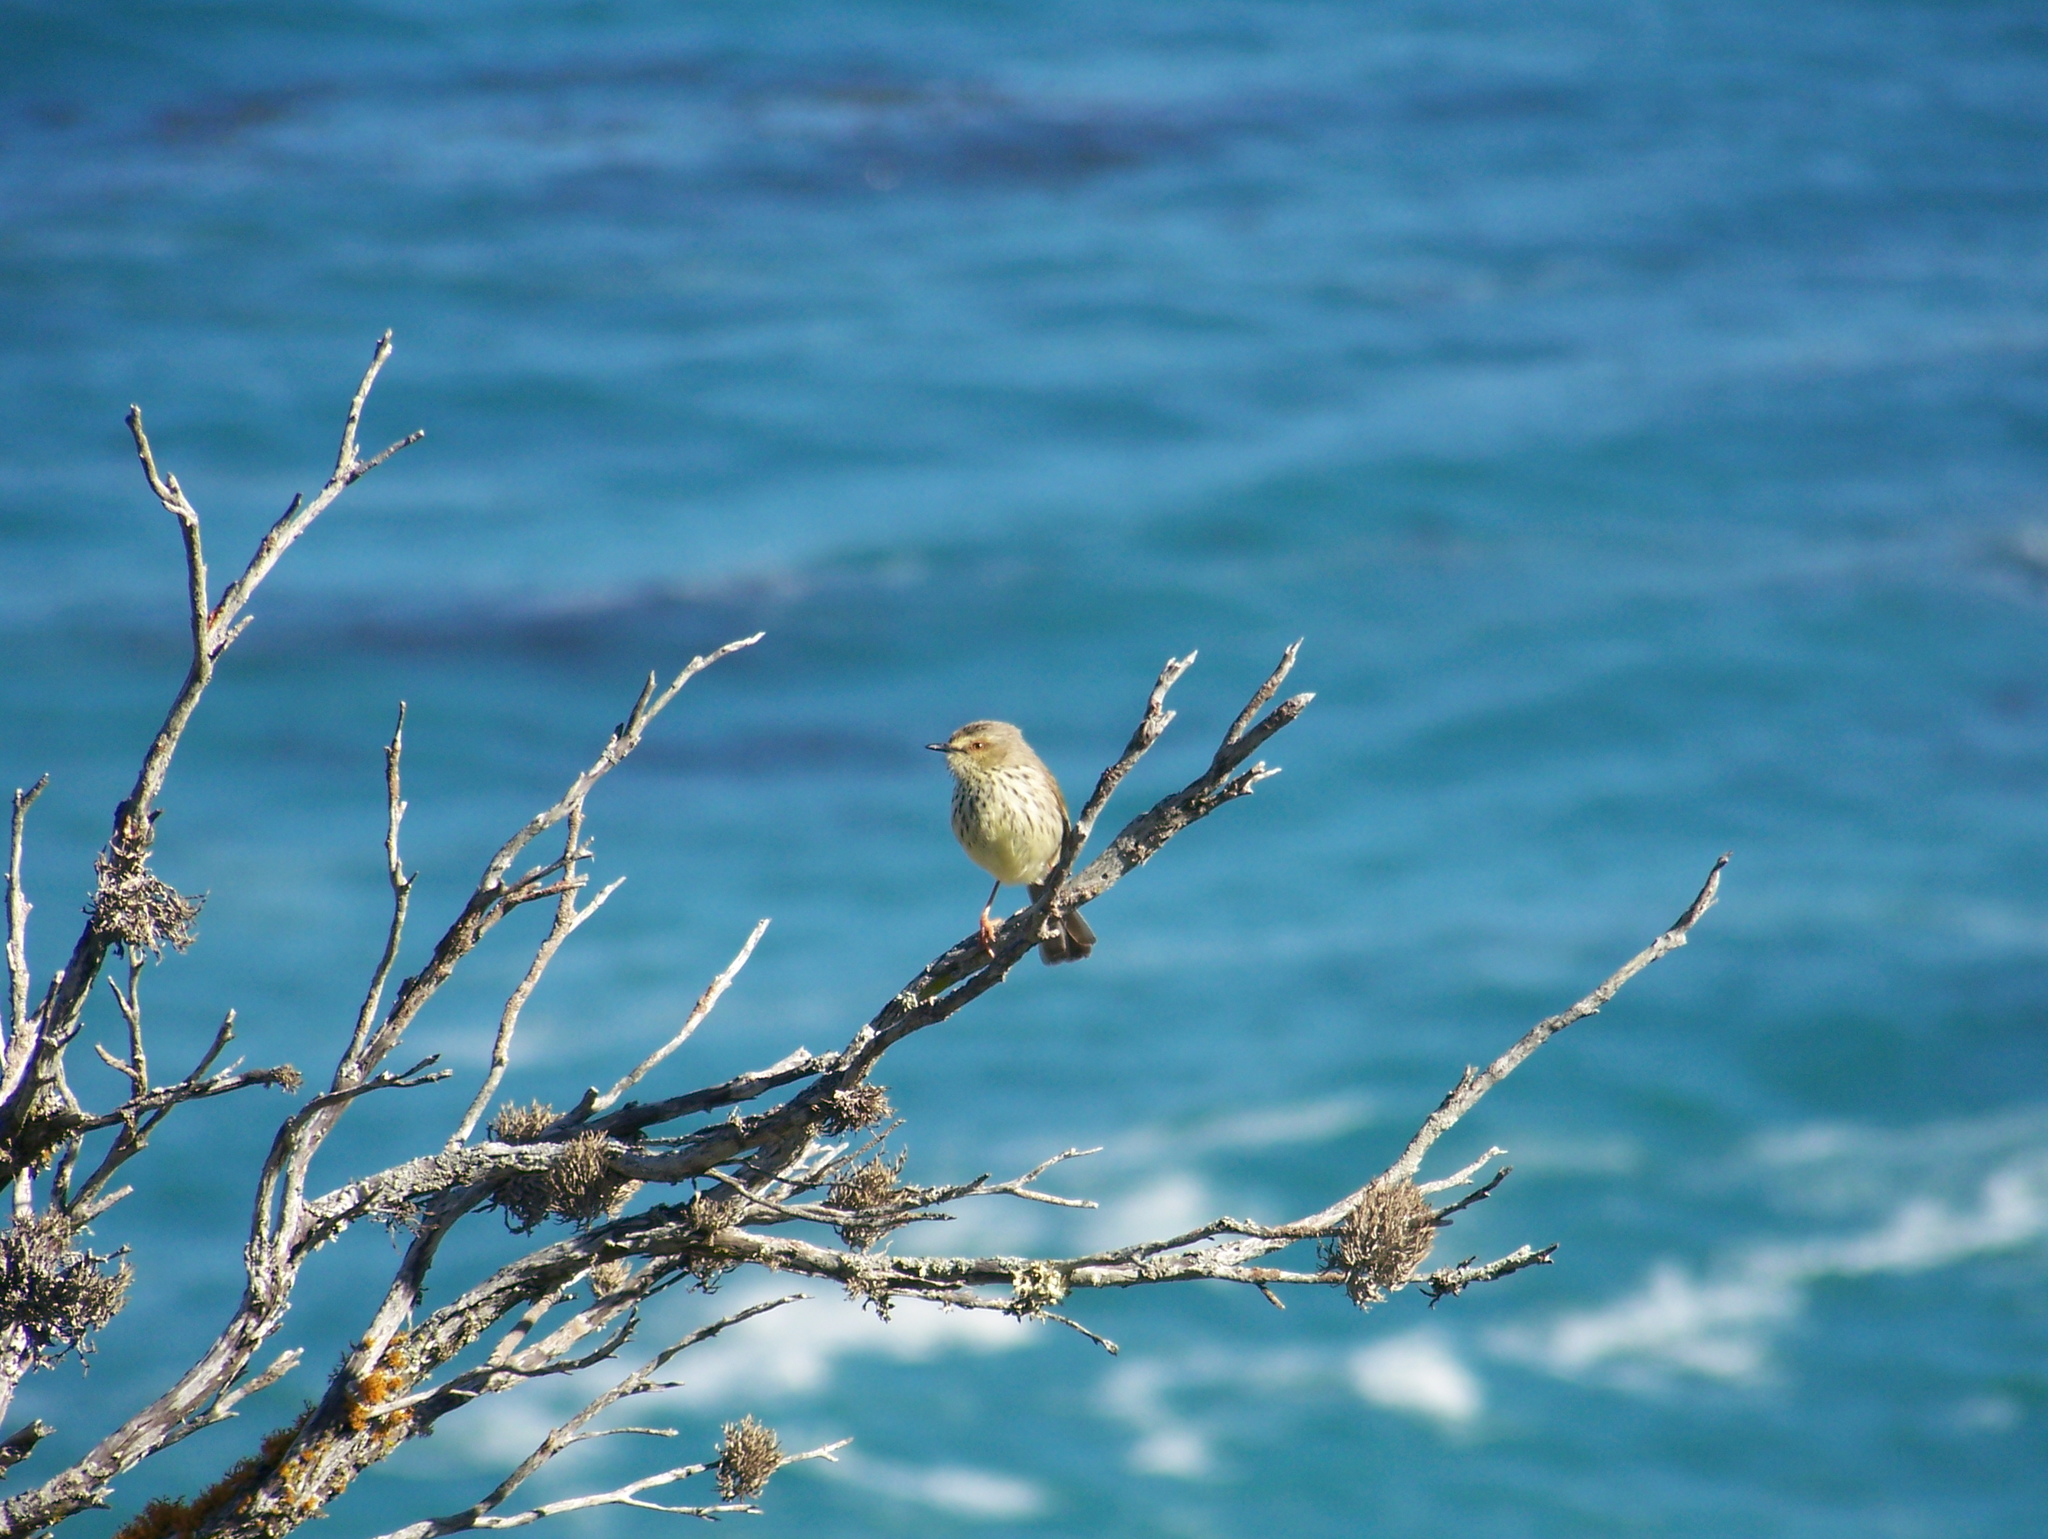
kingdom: Animalia
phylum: Chordata
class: Aves
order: Passeriformes
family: Cisticolidae
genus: Prinia
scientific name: Prinia maculosa
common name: Karoo prinia
